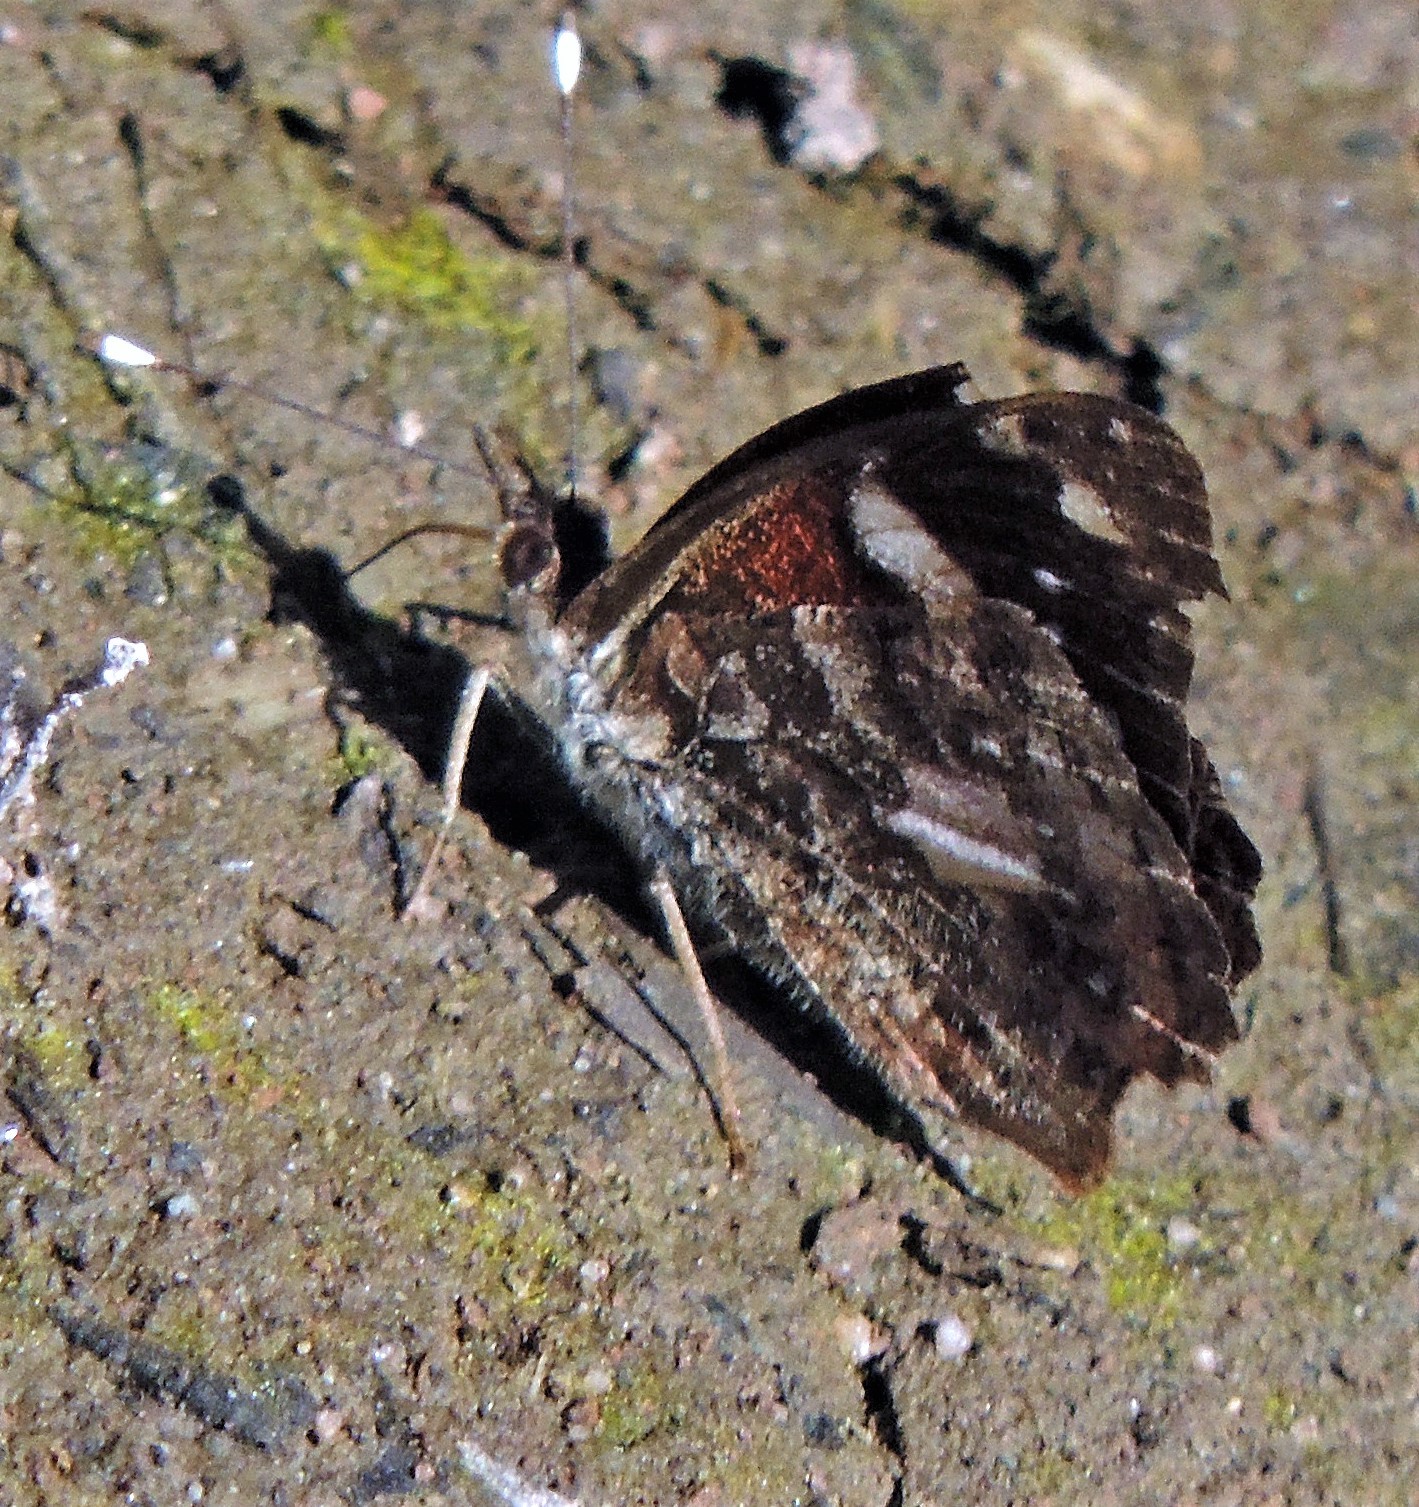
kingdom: Animalia
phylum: Arthropoda
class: Insecta
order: Lepidoptera
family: Nymphalidae
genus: Cybdelis
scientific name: Cybdelis
